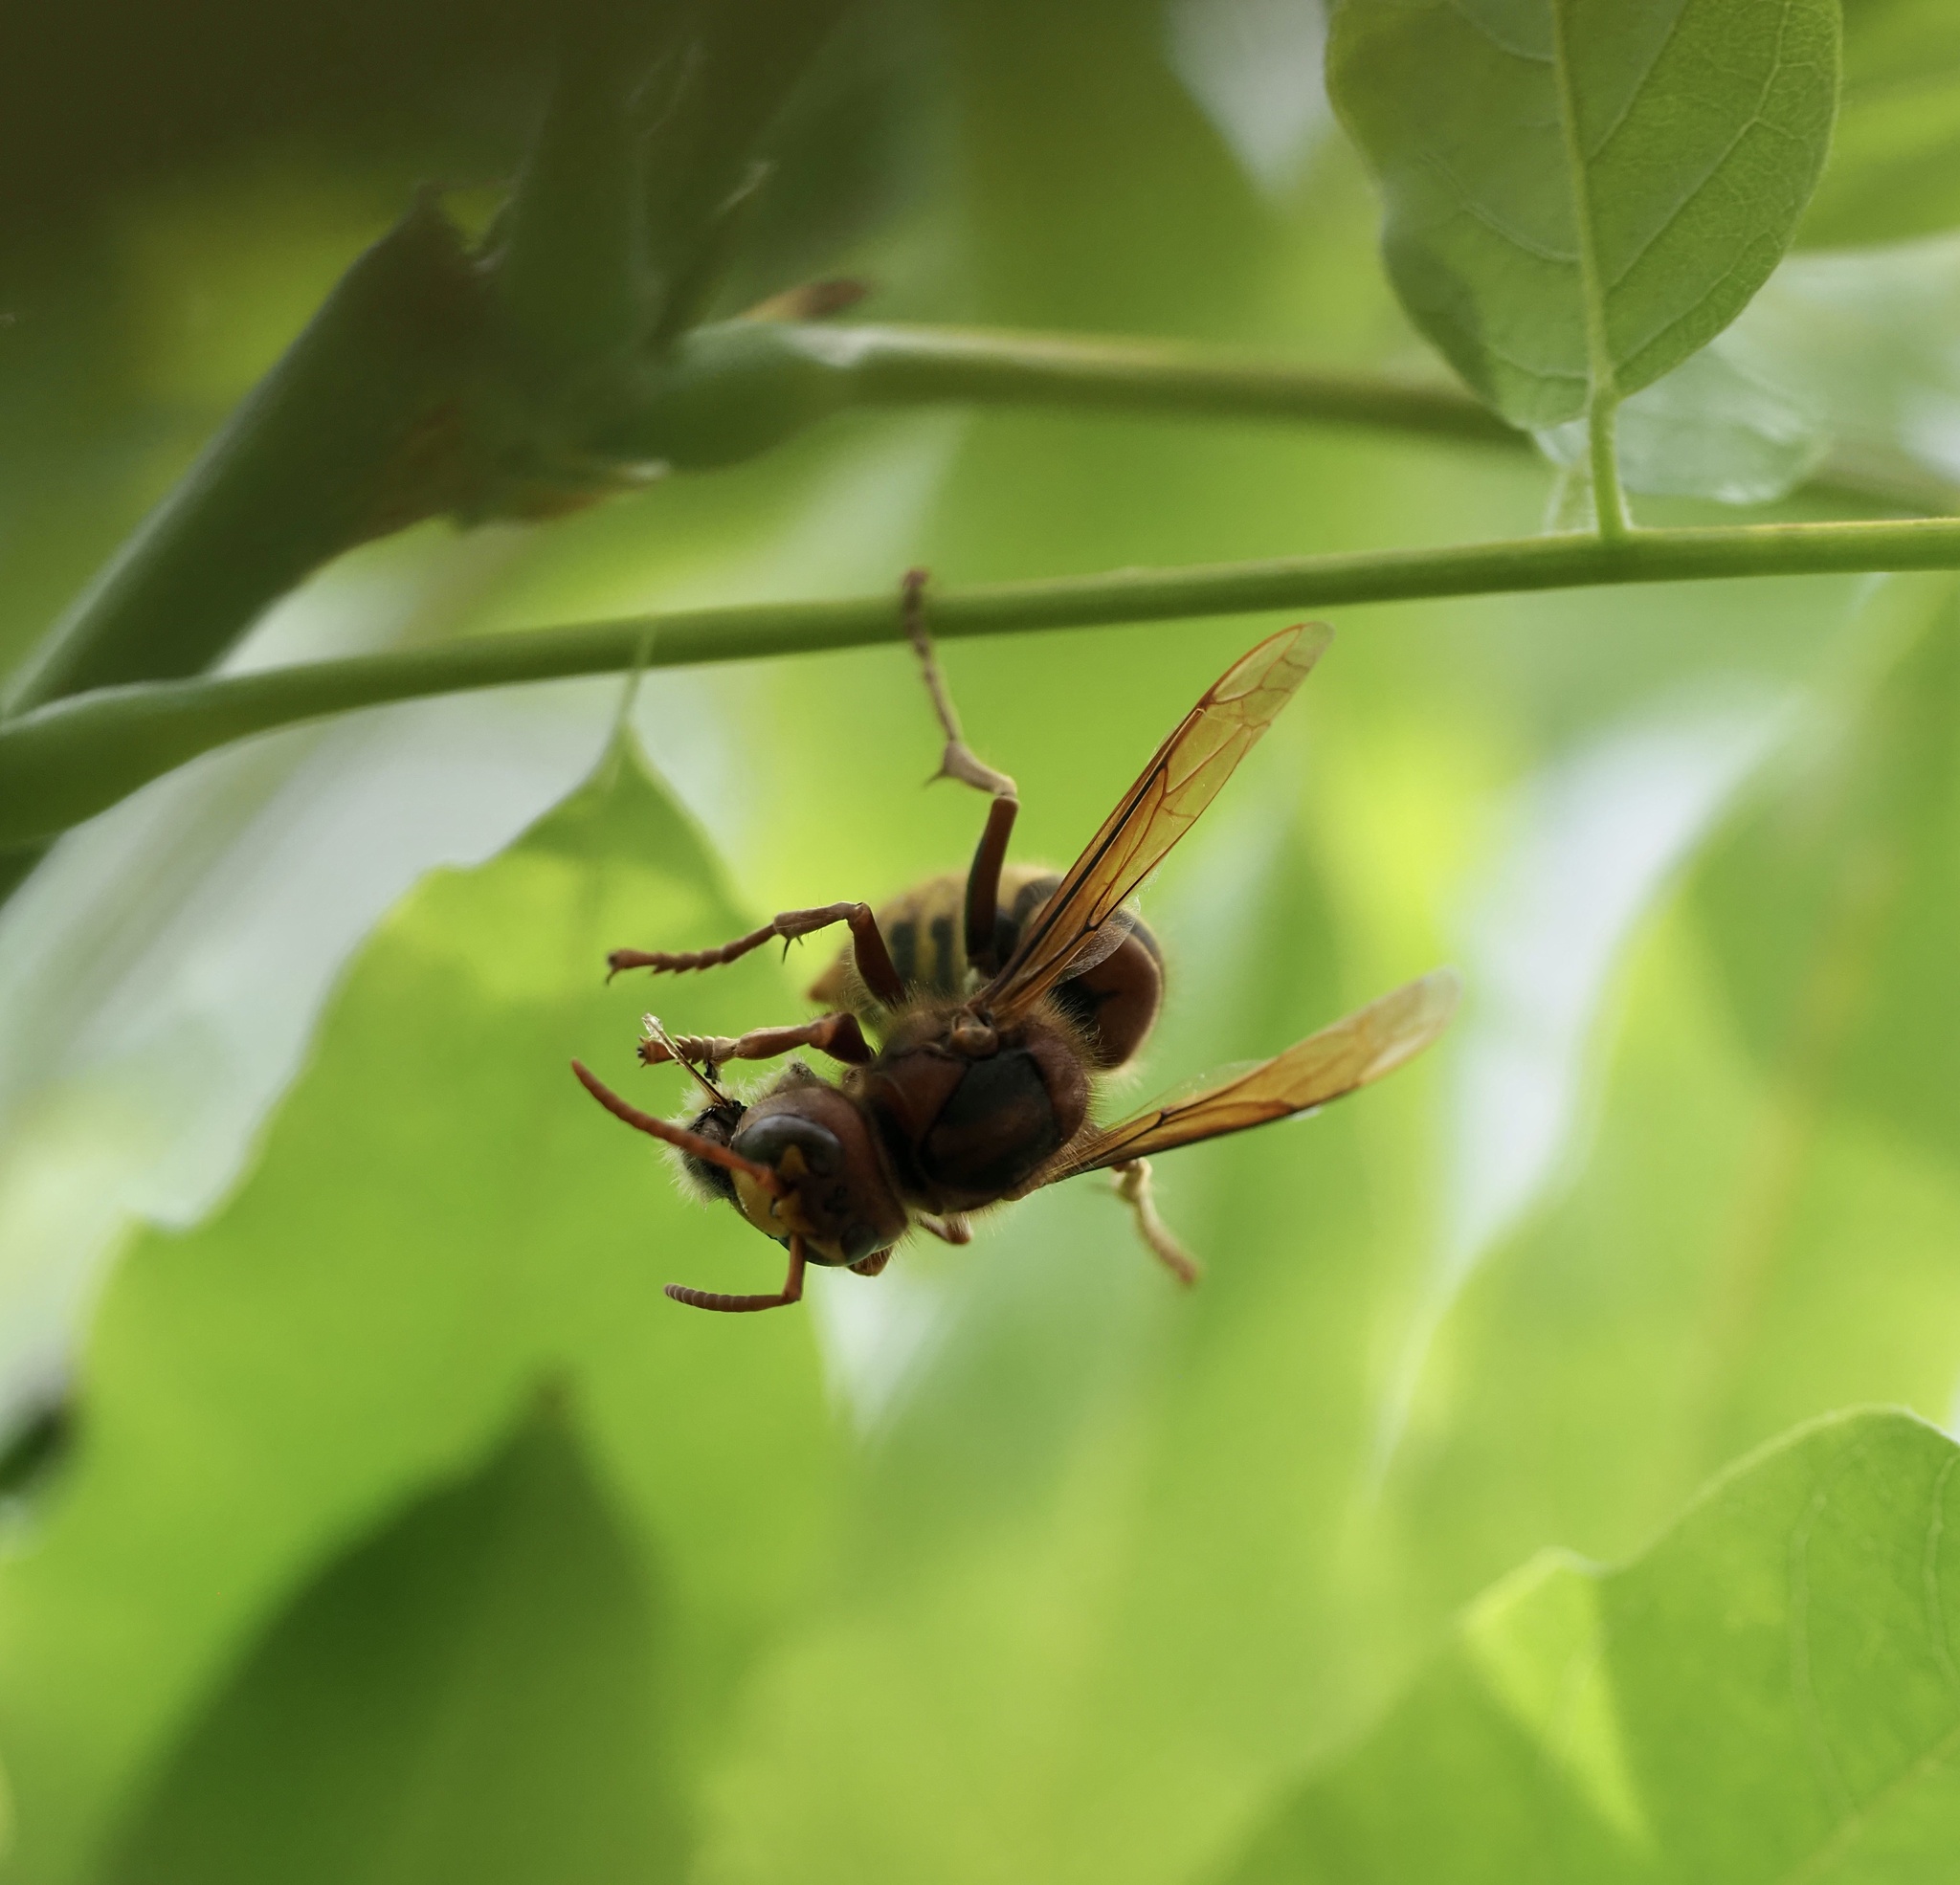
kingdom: Animalia
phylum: Arthropoda
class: Insecta
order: Hymenoptera
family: Vespidae
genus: Vespa
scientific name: Vespa crabro
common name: Hornet
